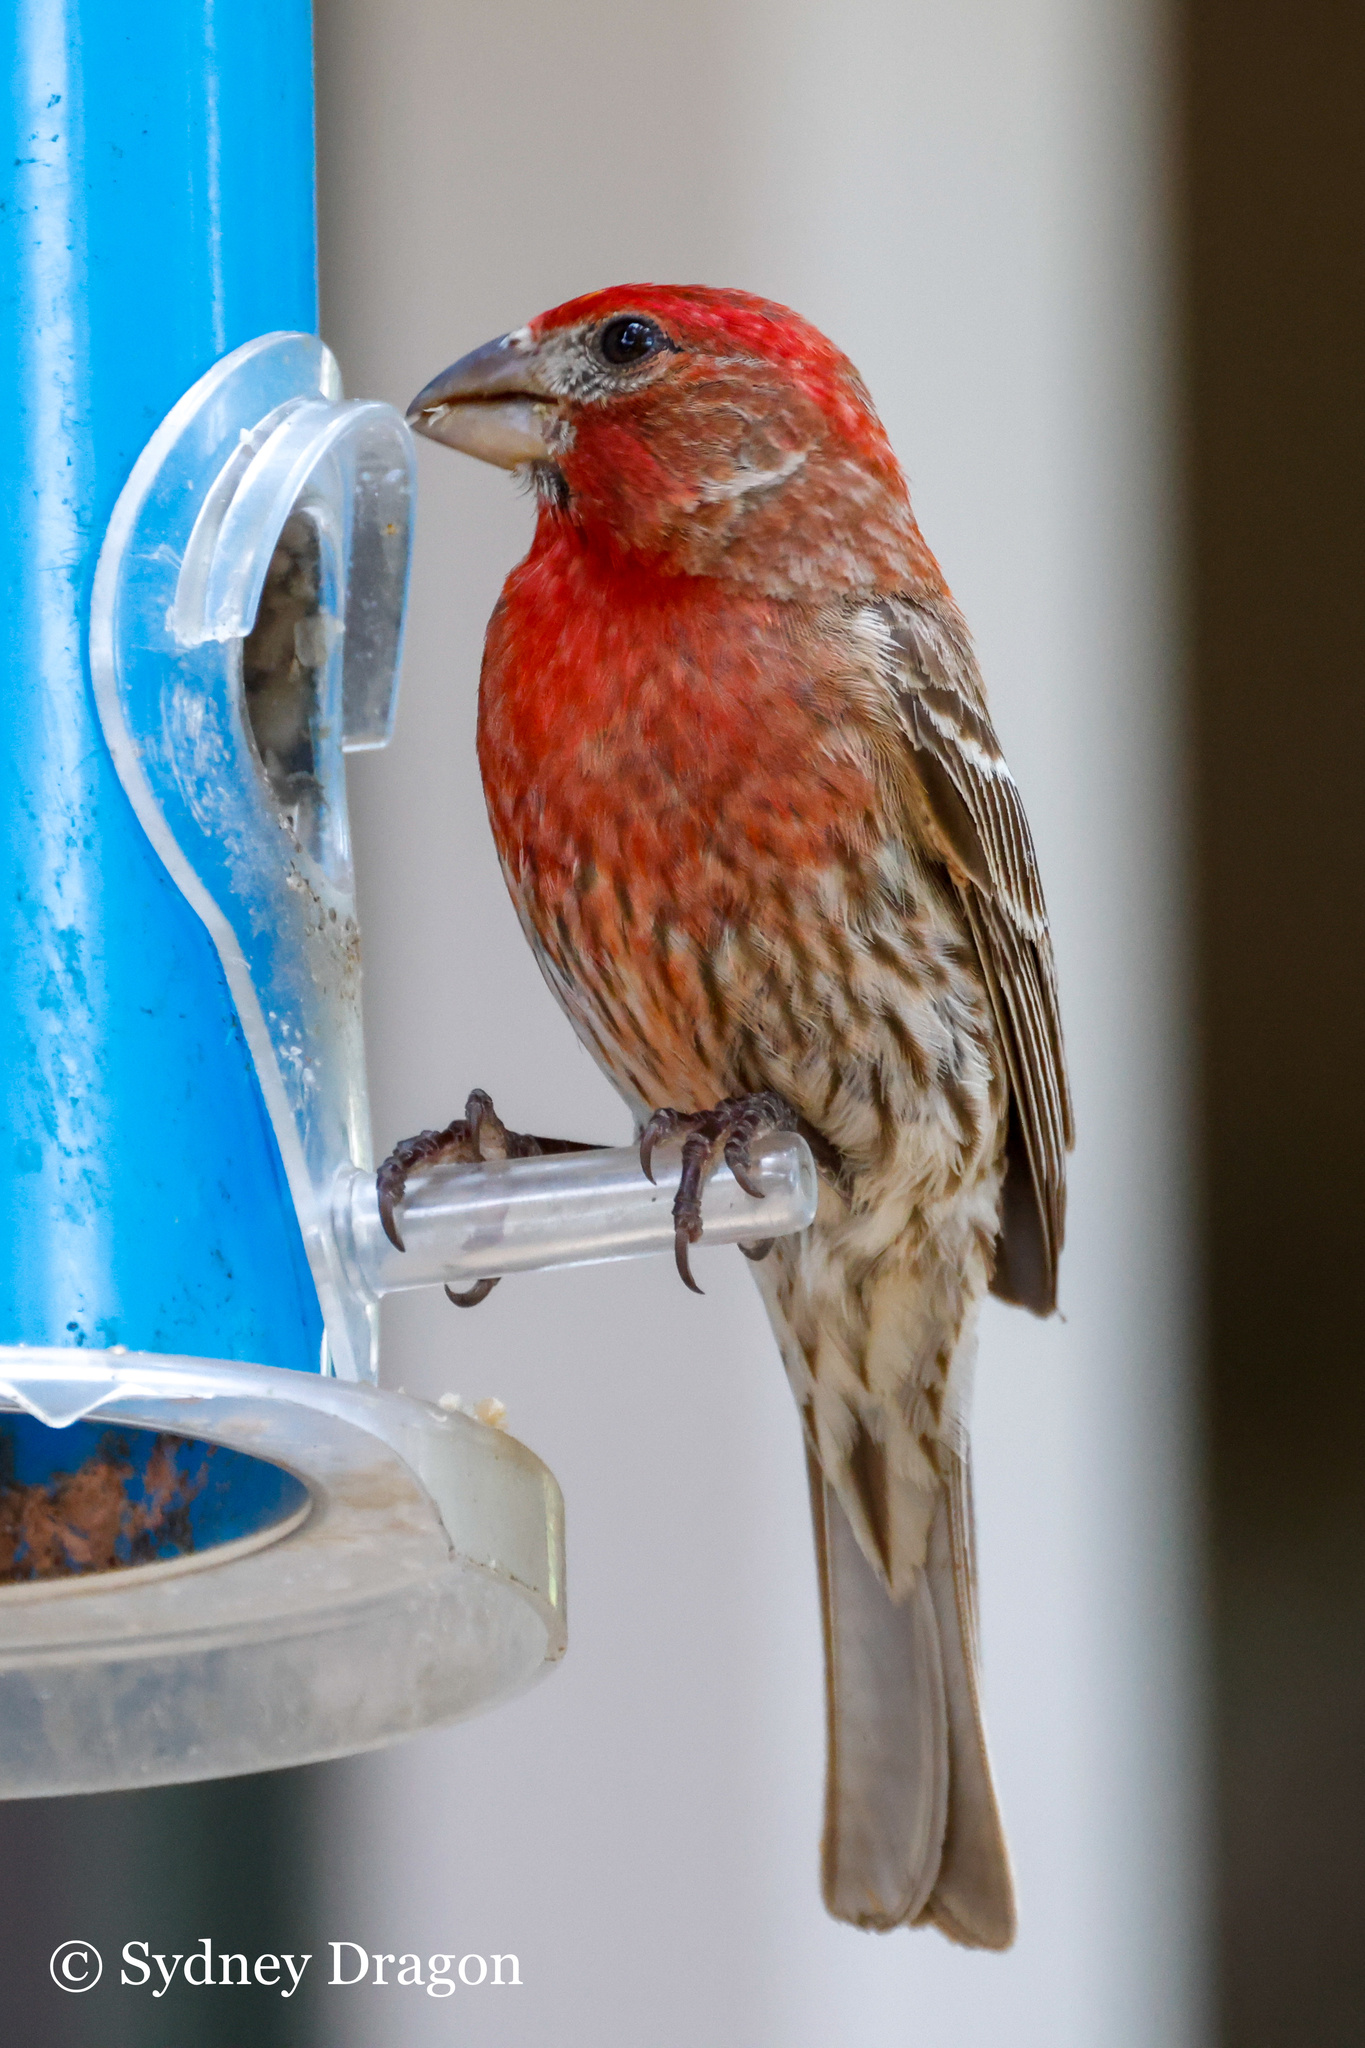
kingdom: Animalia
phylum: Chordata
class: Aves
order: Passeriformes
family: Fringillidae
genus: Haemorhous
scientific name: Haemorhous mexicanus
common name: House finch
